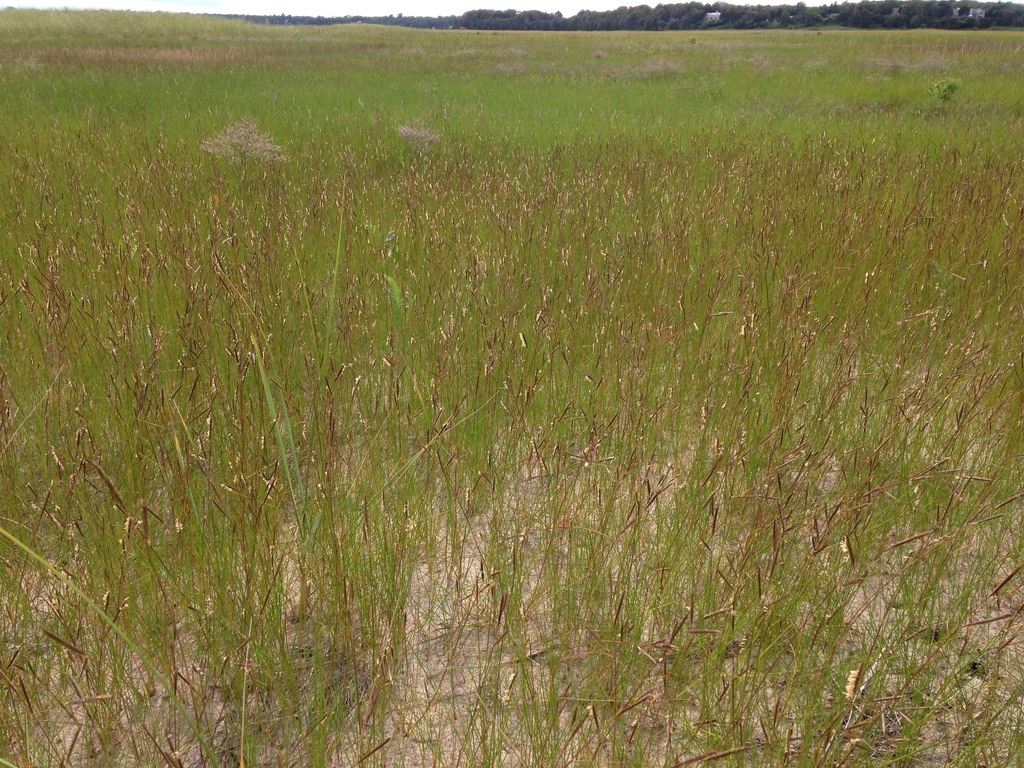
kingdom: Plantae
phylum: Tracheophyta
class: Liliopsida
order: Poales
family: Poaceae
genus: Sporobolus
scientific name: Sporobolus pumilus
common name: Highwater grass
